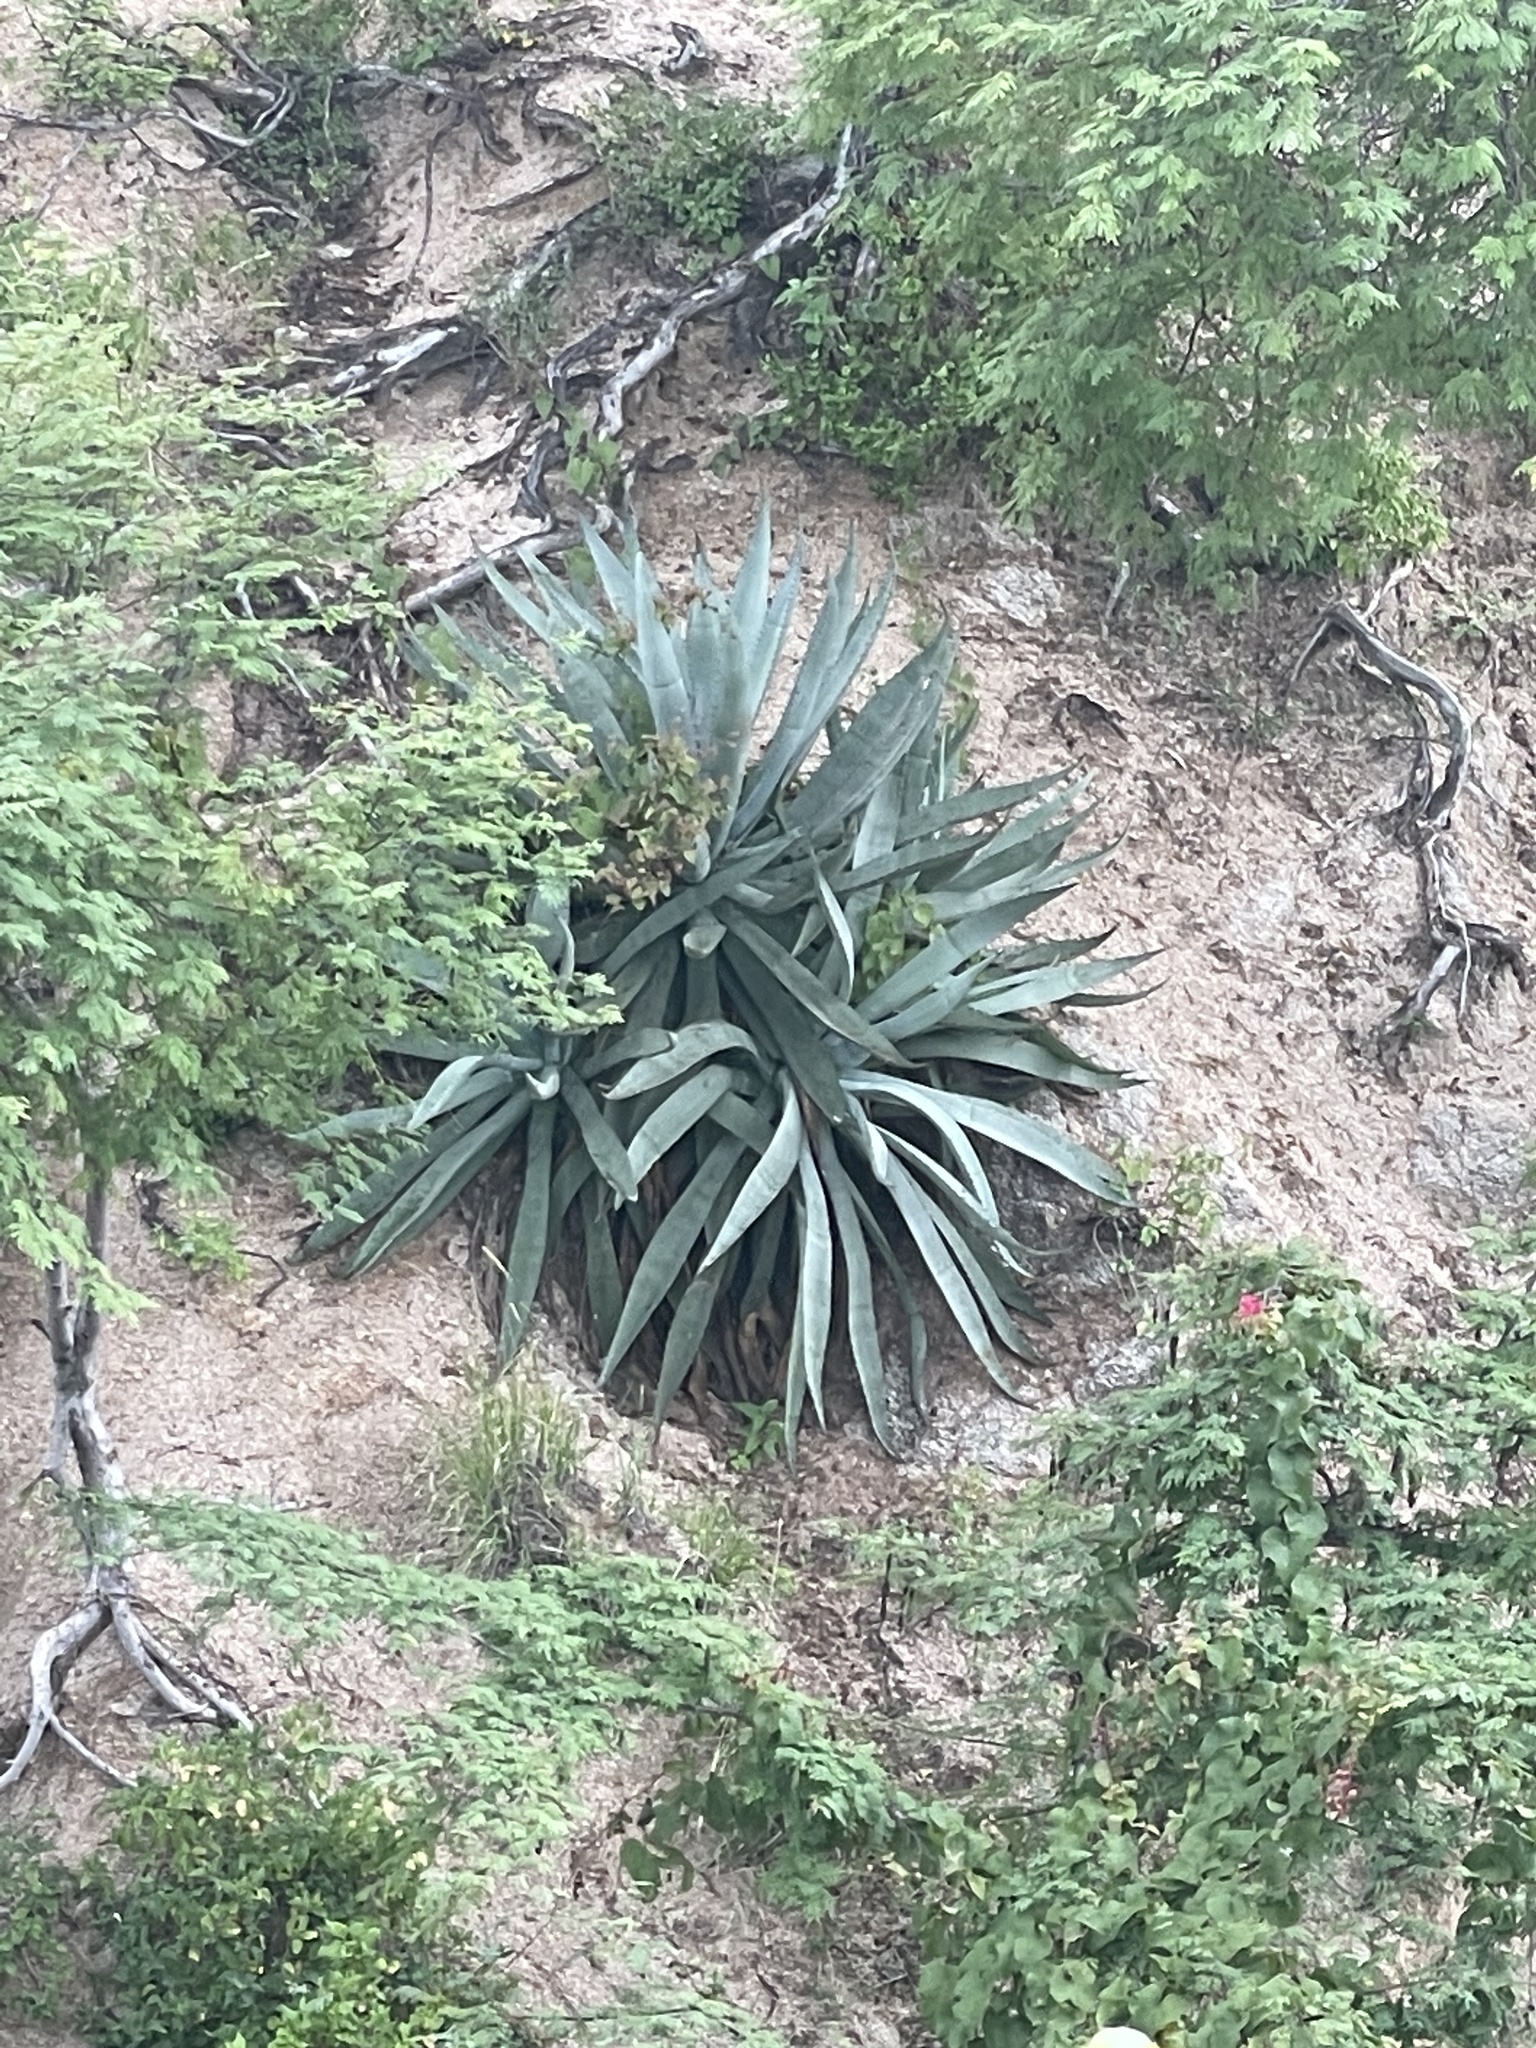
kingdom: Plantae
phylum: Tracheophyta
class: Liliopsida
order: Asparagales
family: Asparagaceae
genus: Agave
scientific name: Agave aurea
